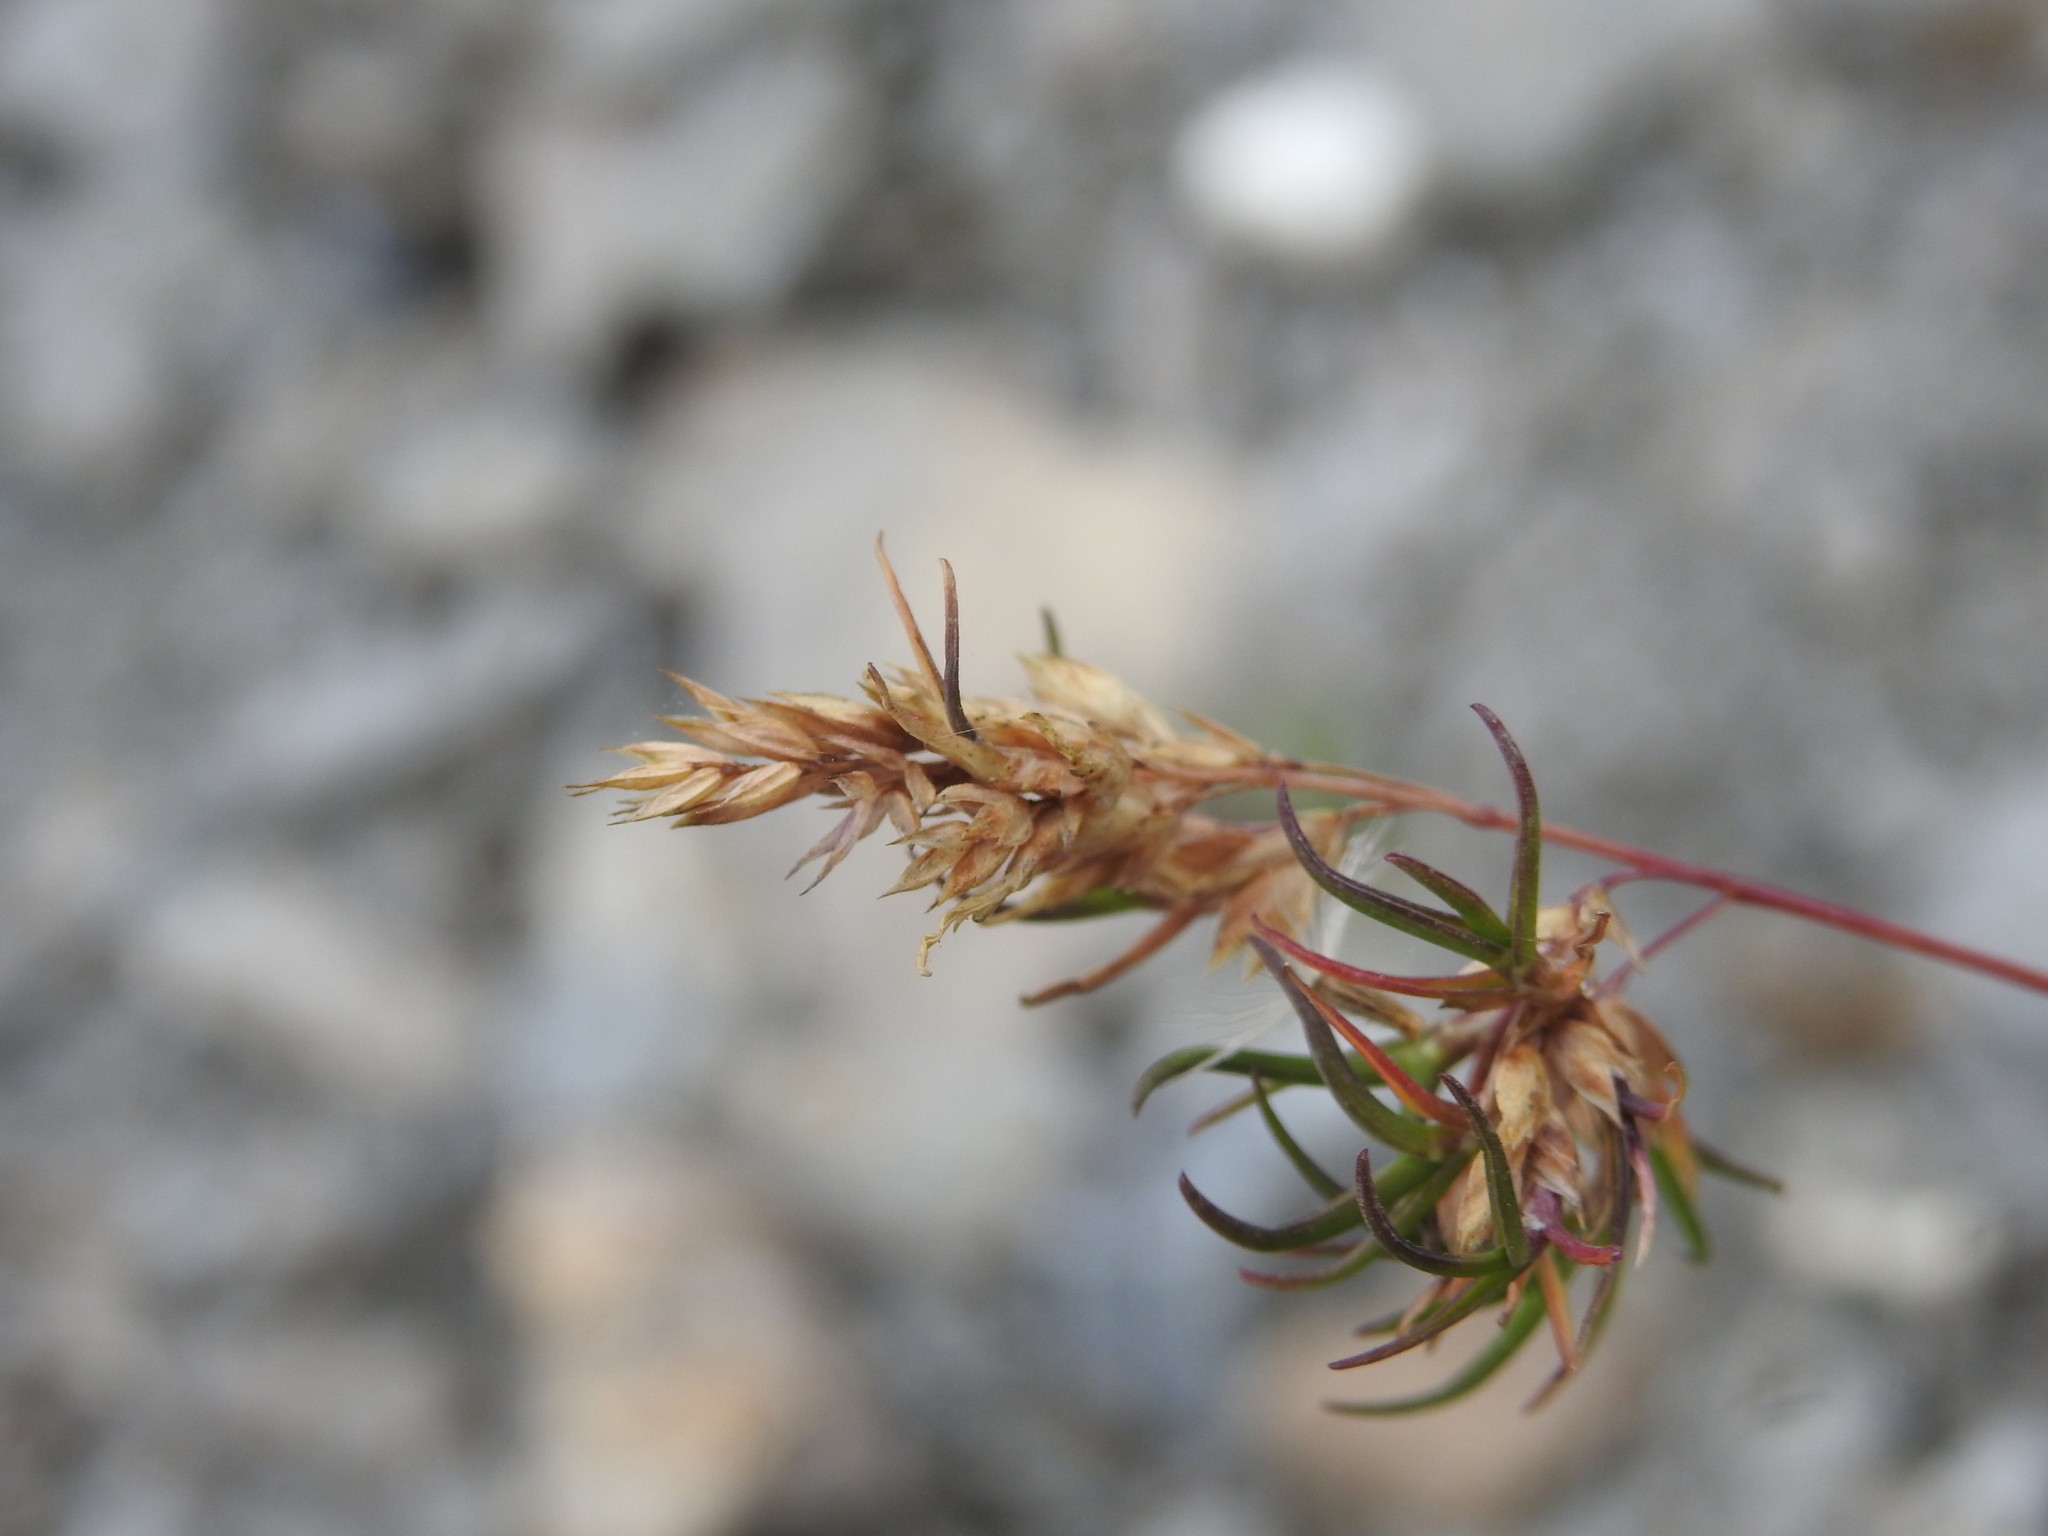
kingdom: Plantae
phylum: Tracheophyta
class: Liliopsida
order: Poales
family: Poaceae
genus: Poa
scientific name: Poa alpina
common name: Alpine bluegrass
